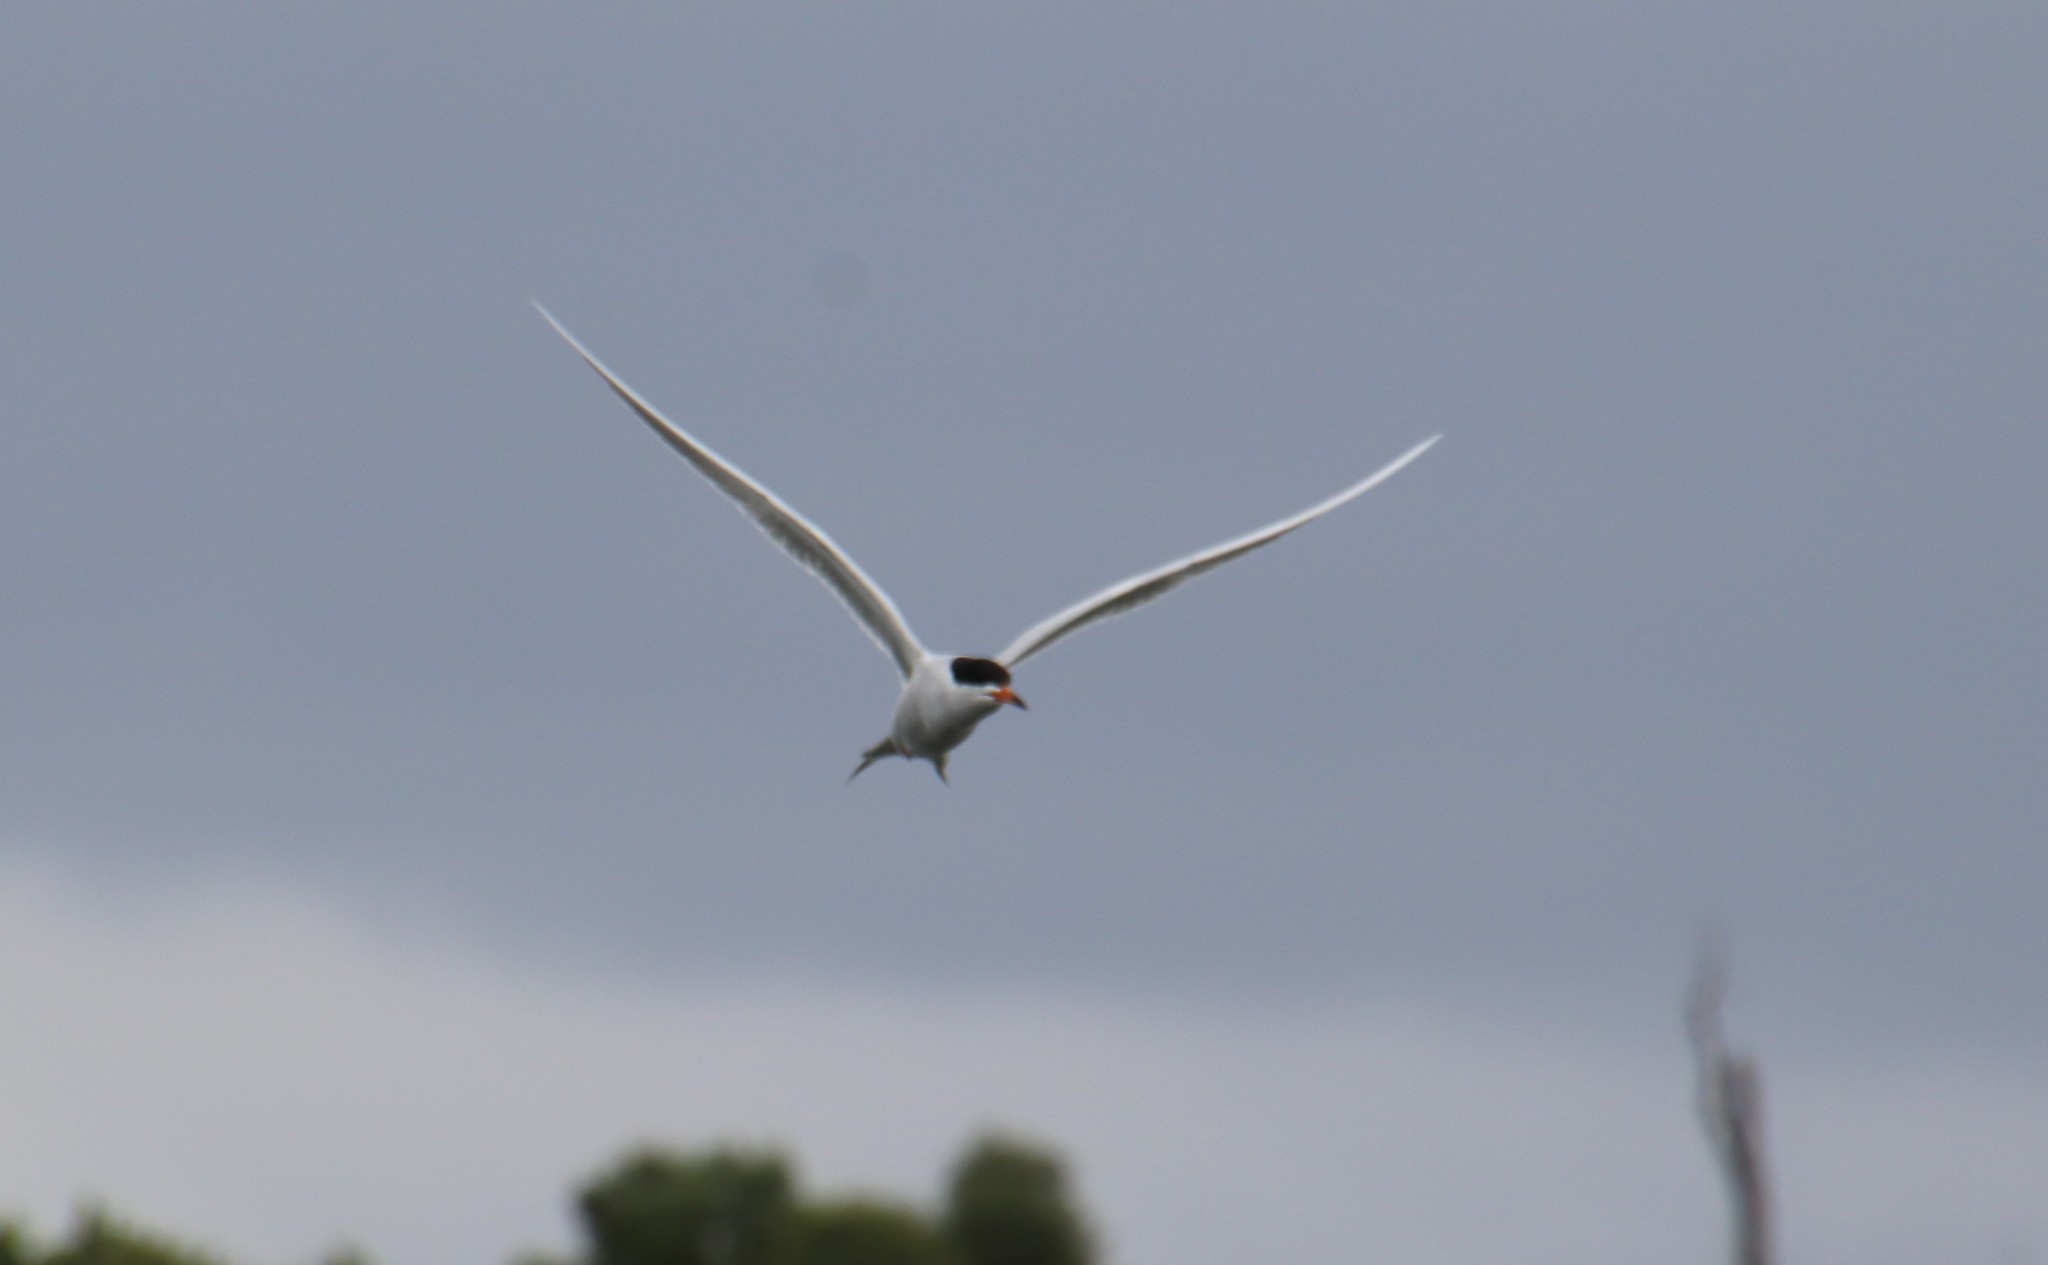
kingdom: Animalia
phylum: Chordata
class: Aves
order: Charadriiformes
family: Laridae
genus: Sterna
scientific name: Sterna forsteri
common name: Forster's tern
